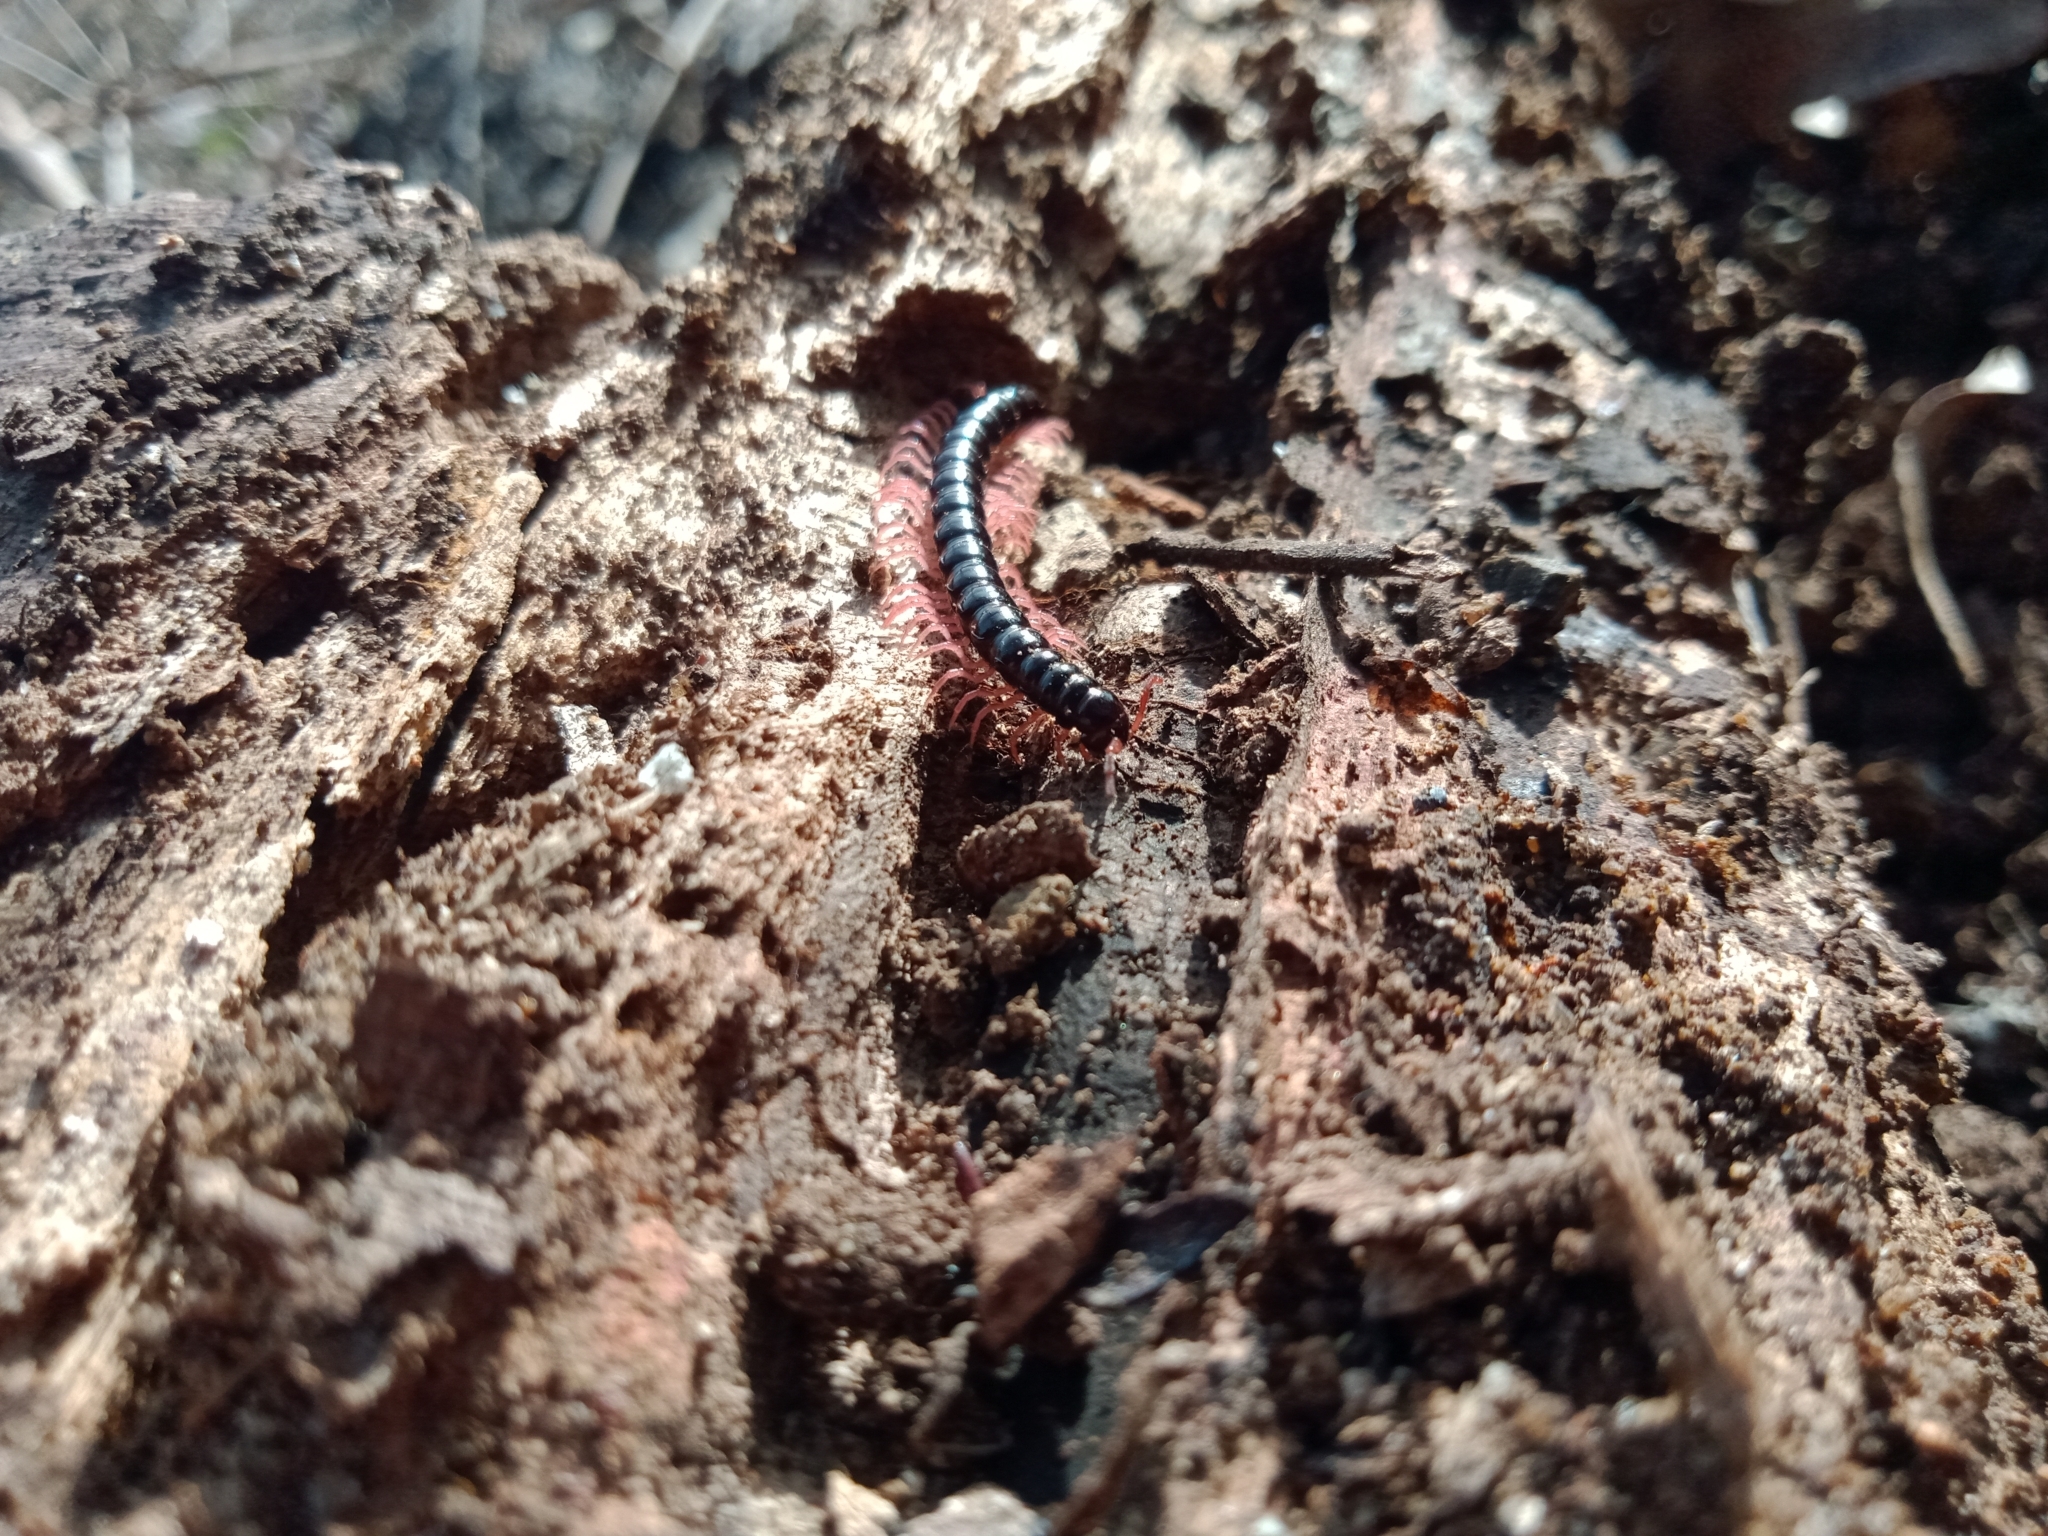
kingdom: Animalia
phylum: Arthropoda
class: Diplopoda
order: Polydesmida
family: Paradoxosomatidae
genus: Heterocladosoma
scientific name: Heterocladosoma
